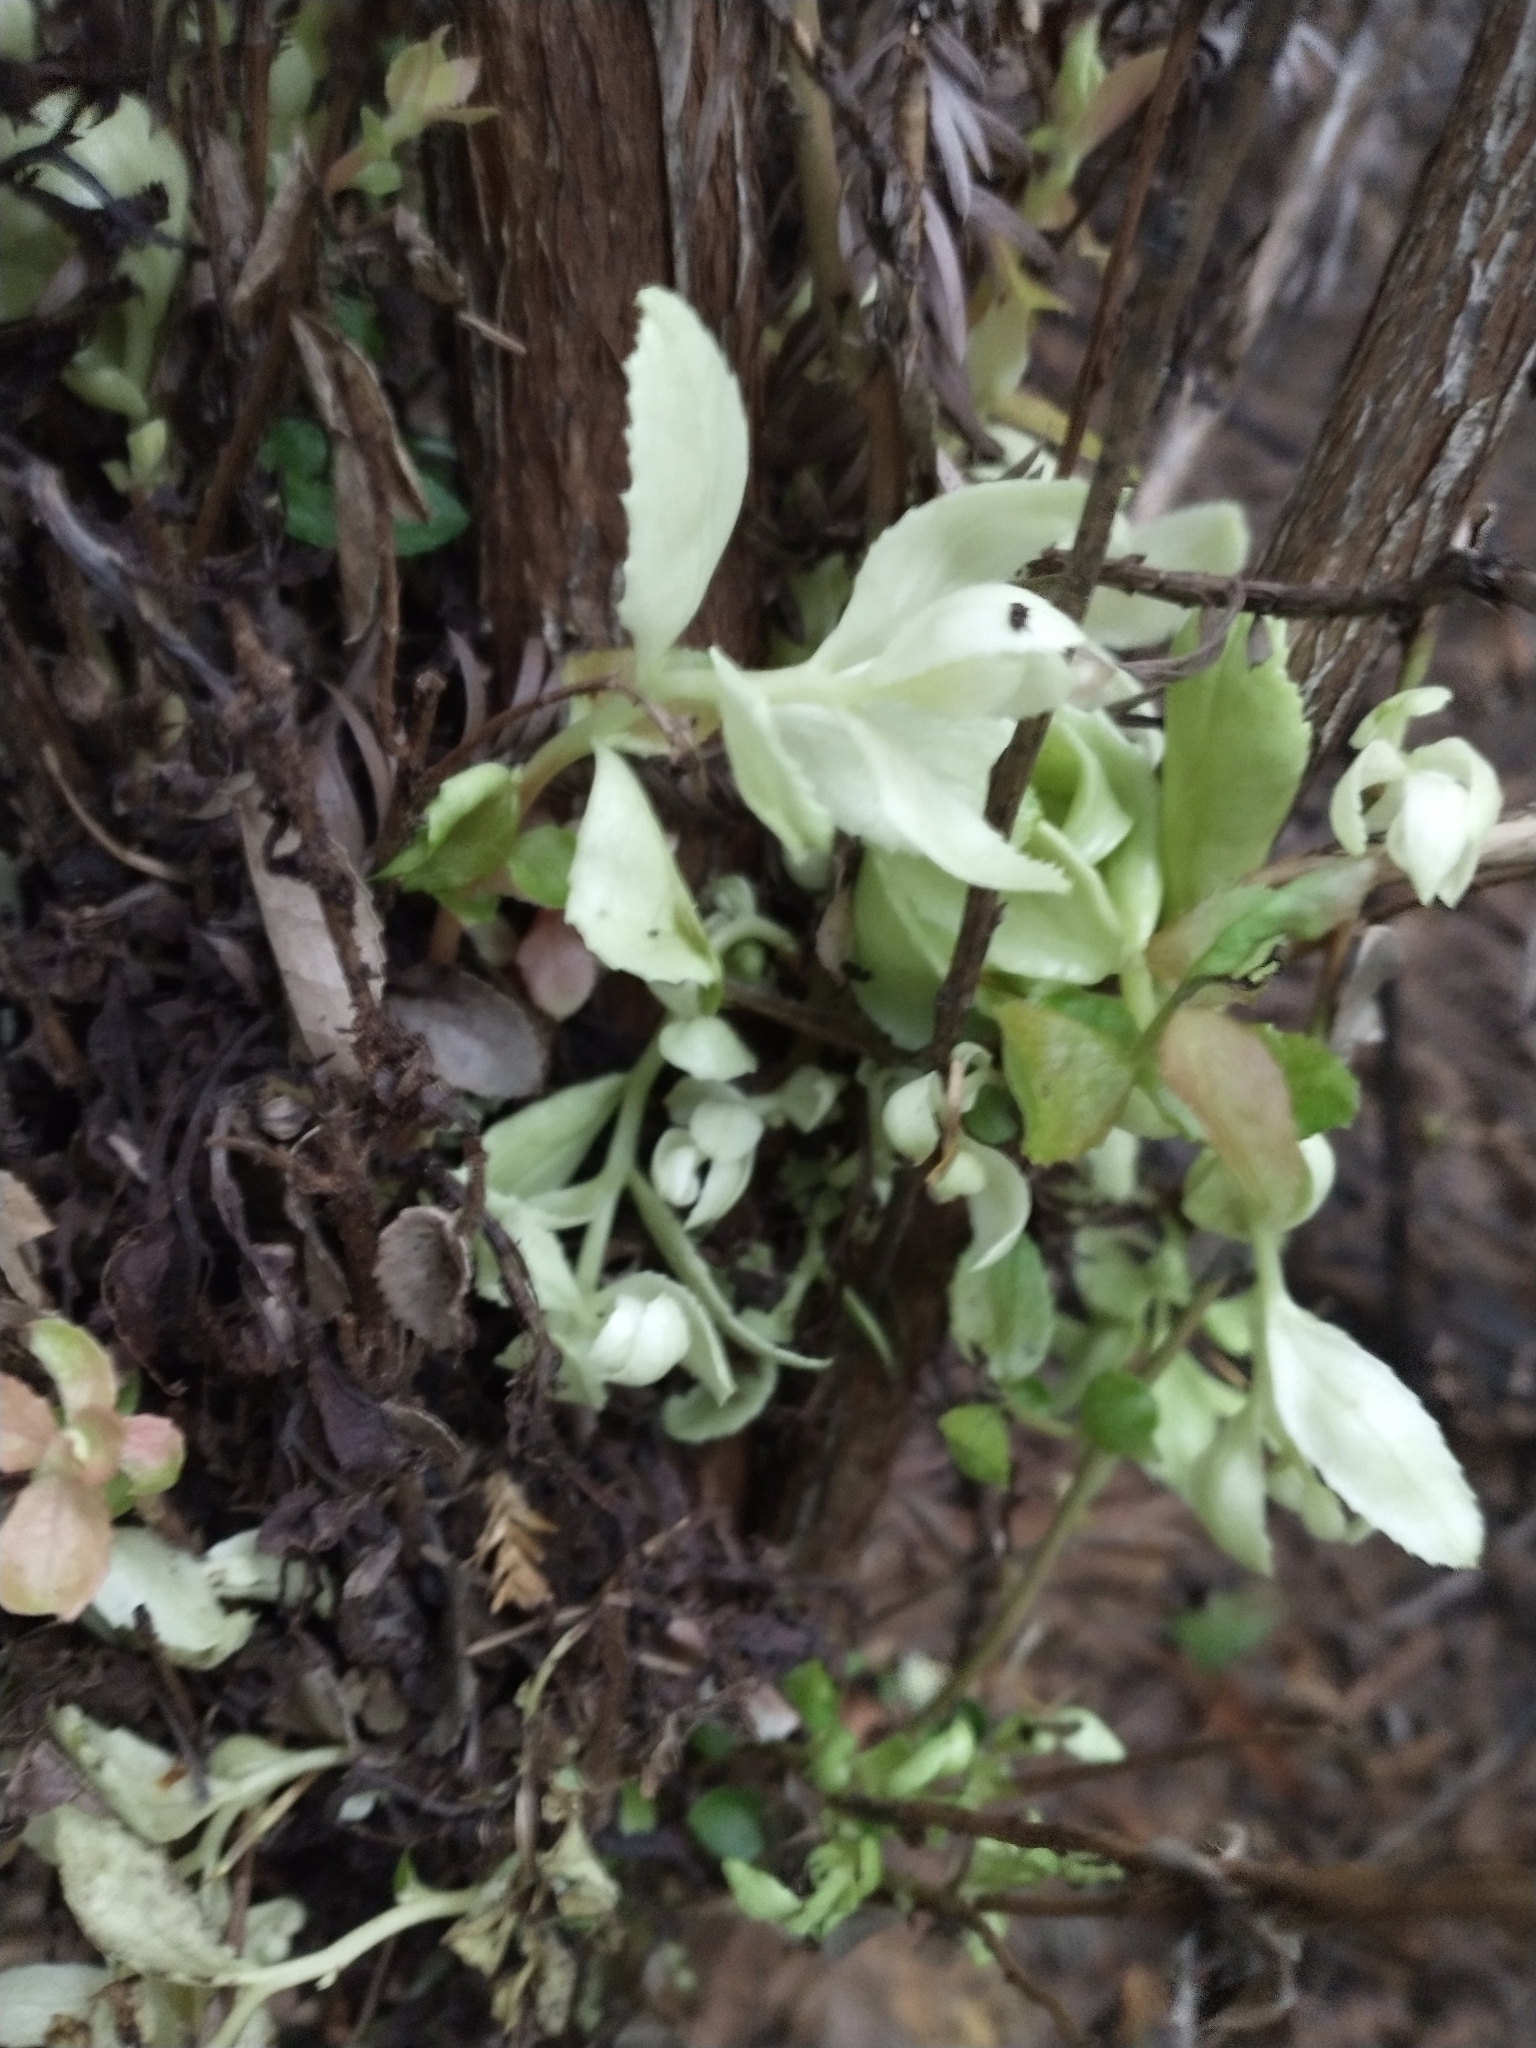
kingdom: Plantae
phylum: Tracheophyta
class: Magnoliopsida
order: Ericales
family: Ericaceae
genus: Vaccinium
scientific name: Vaccinium ovatum
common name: California-huckleberry
